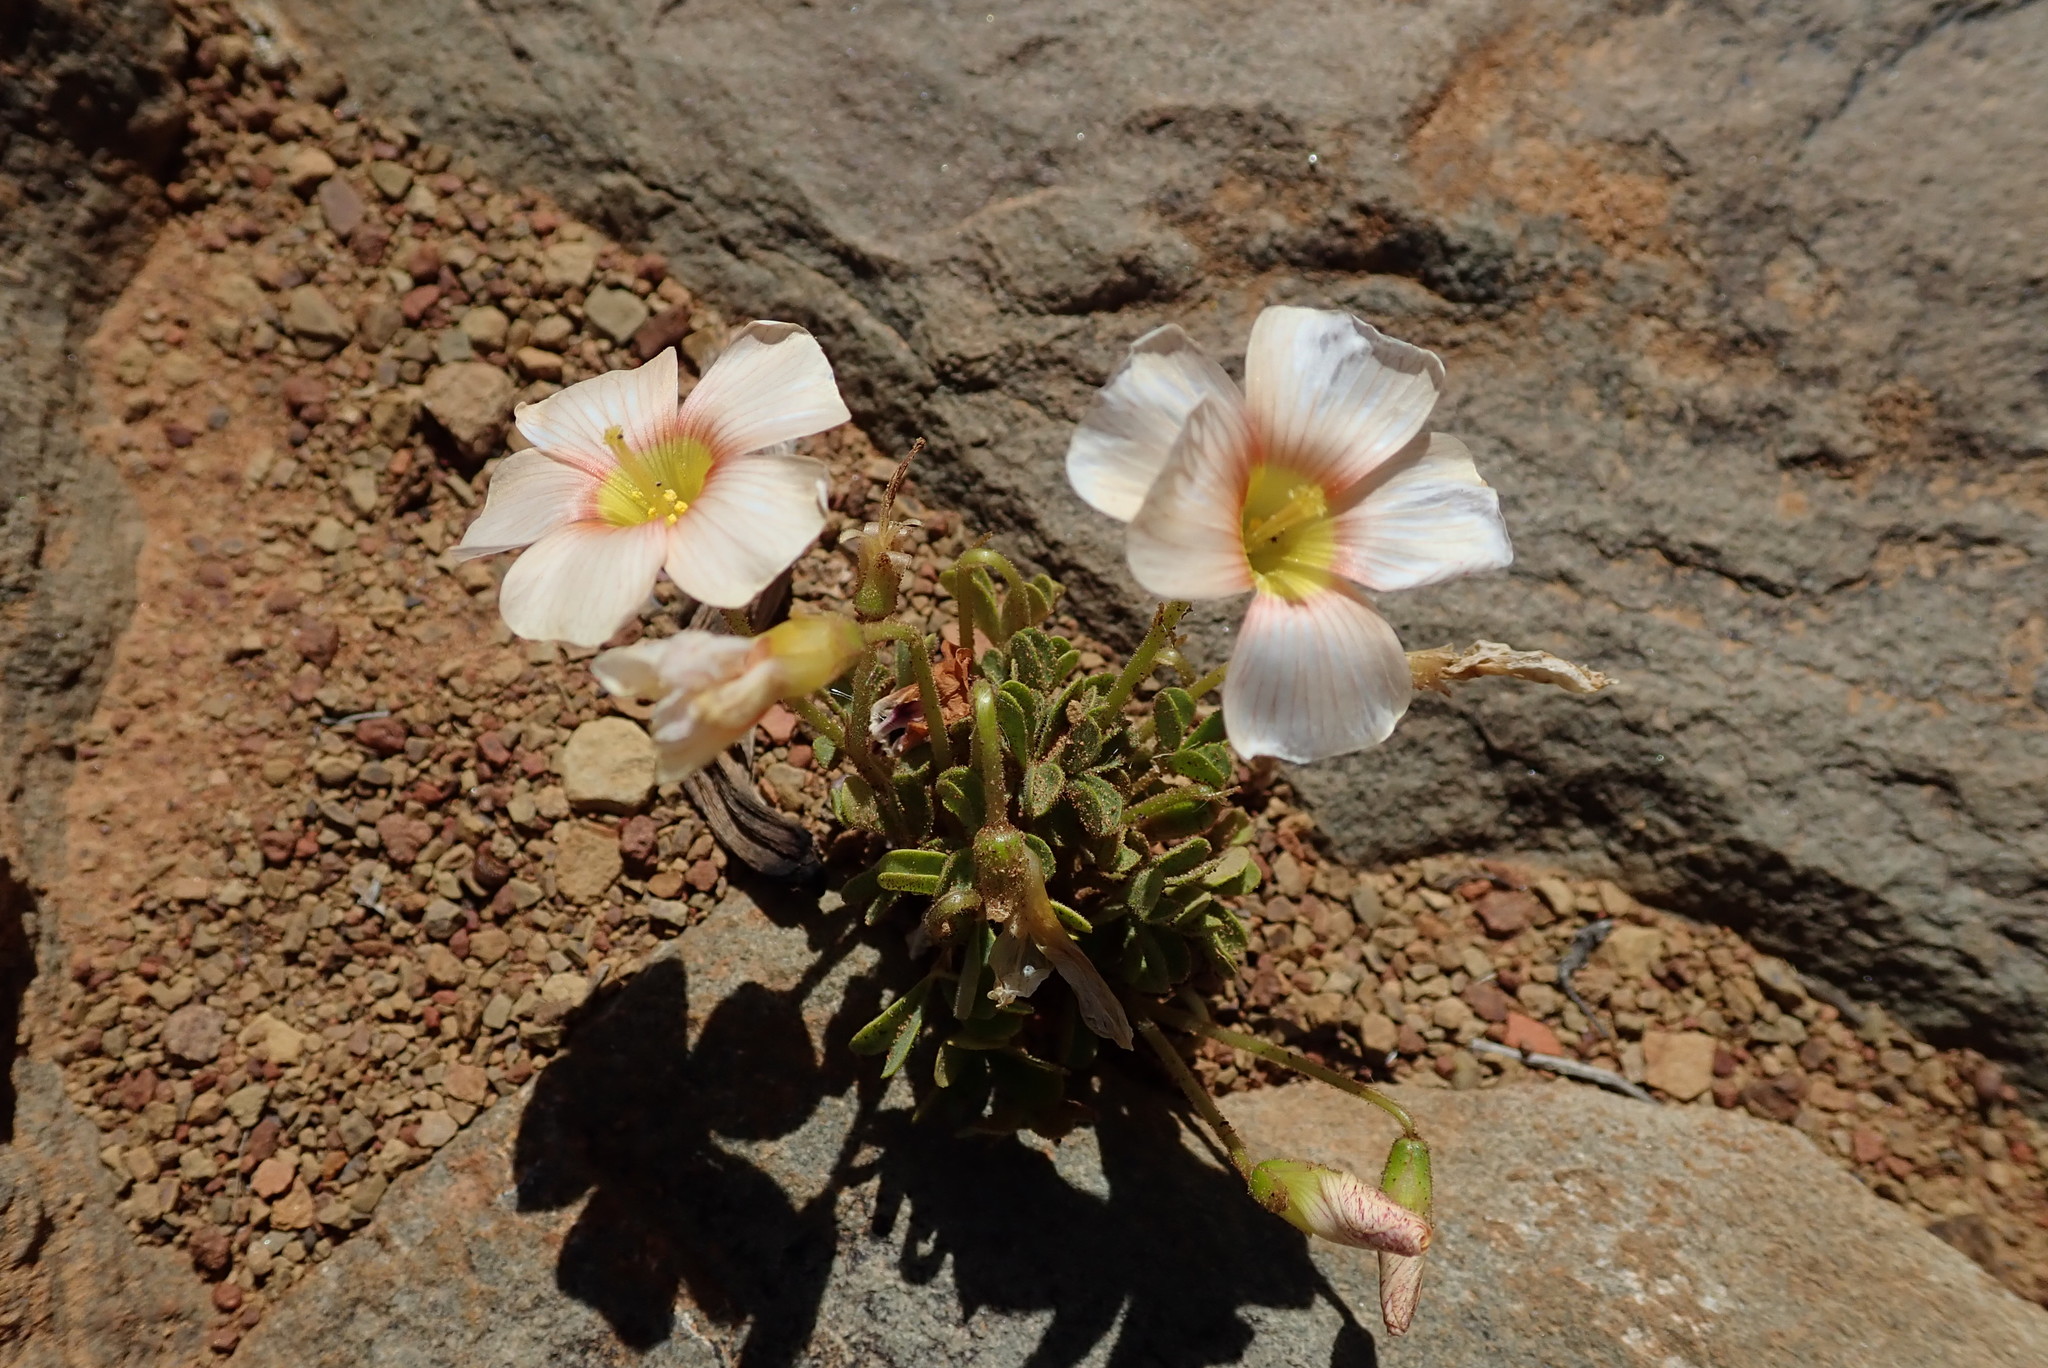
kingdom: Plantae
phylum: Tracheophyta
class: Magnoliopsida
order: Oxalidales
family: Oxalidaceae
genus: Oxalis
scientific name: Oxalis obtusa
